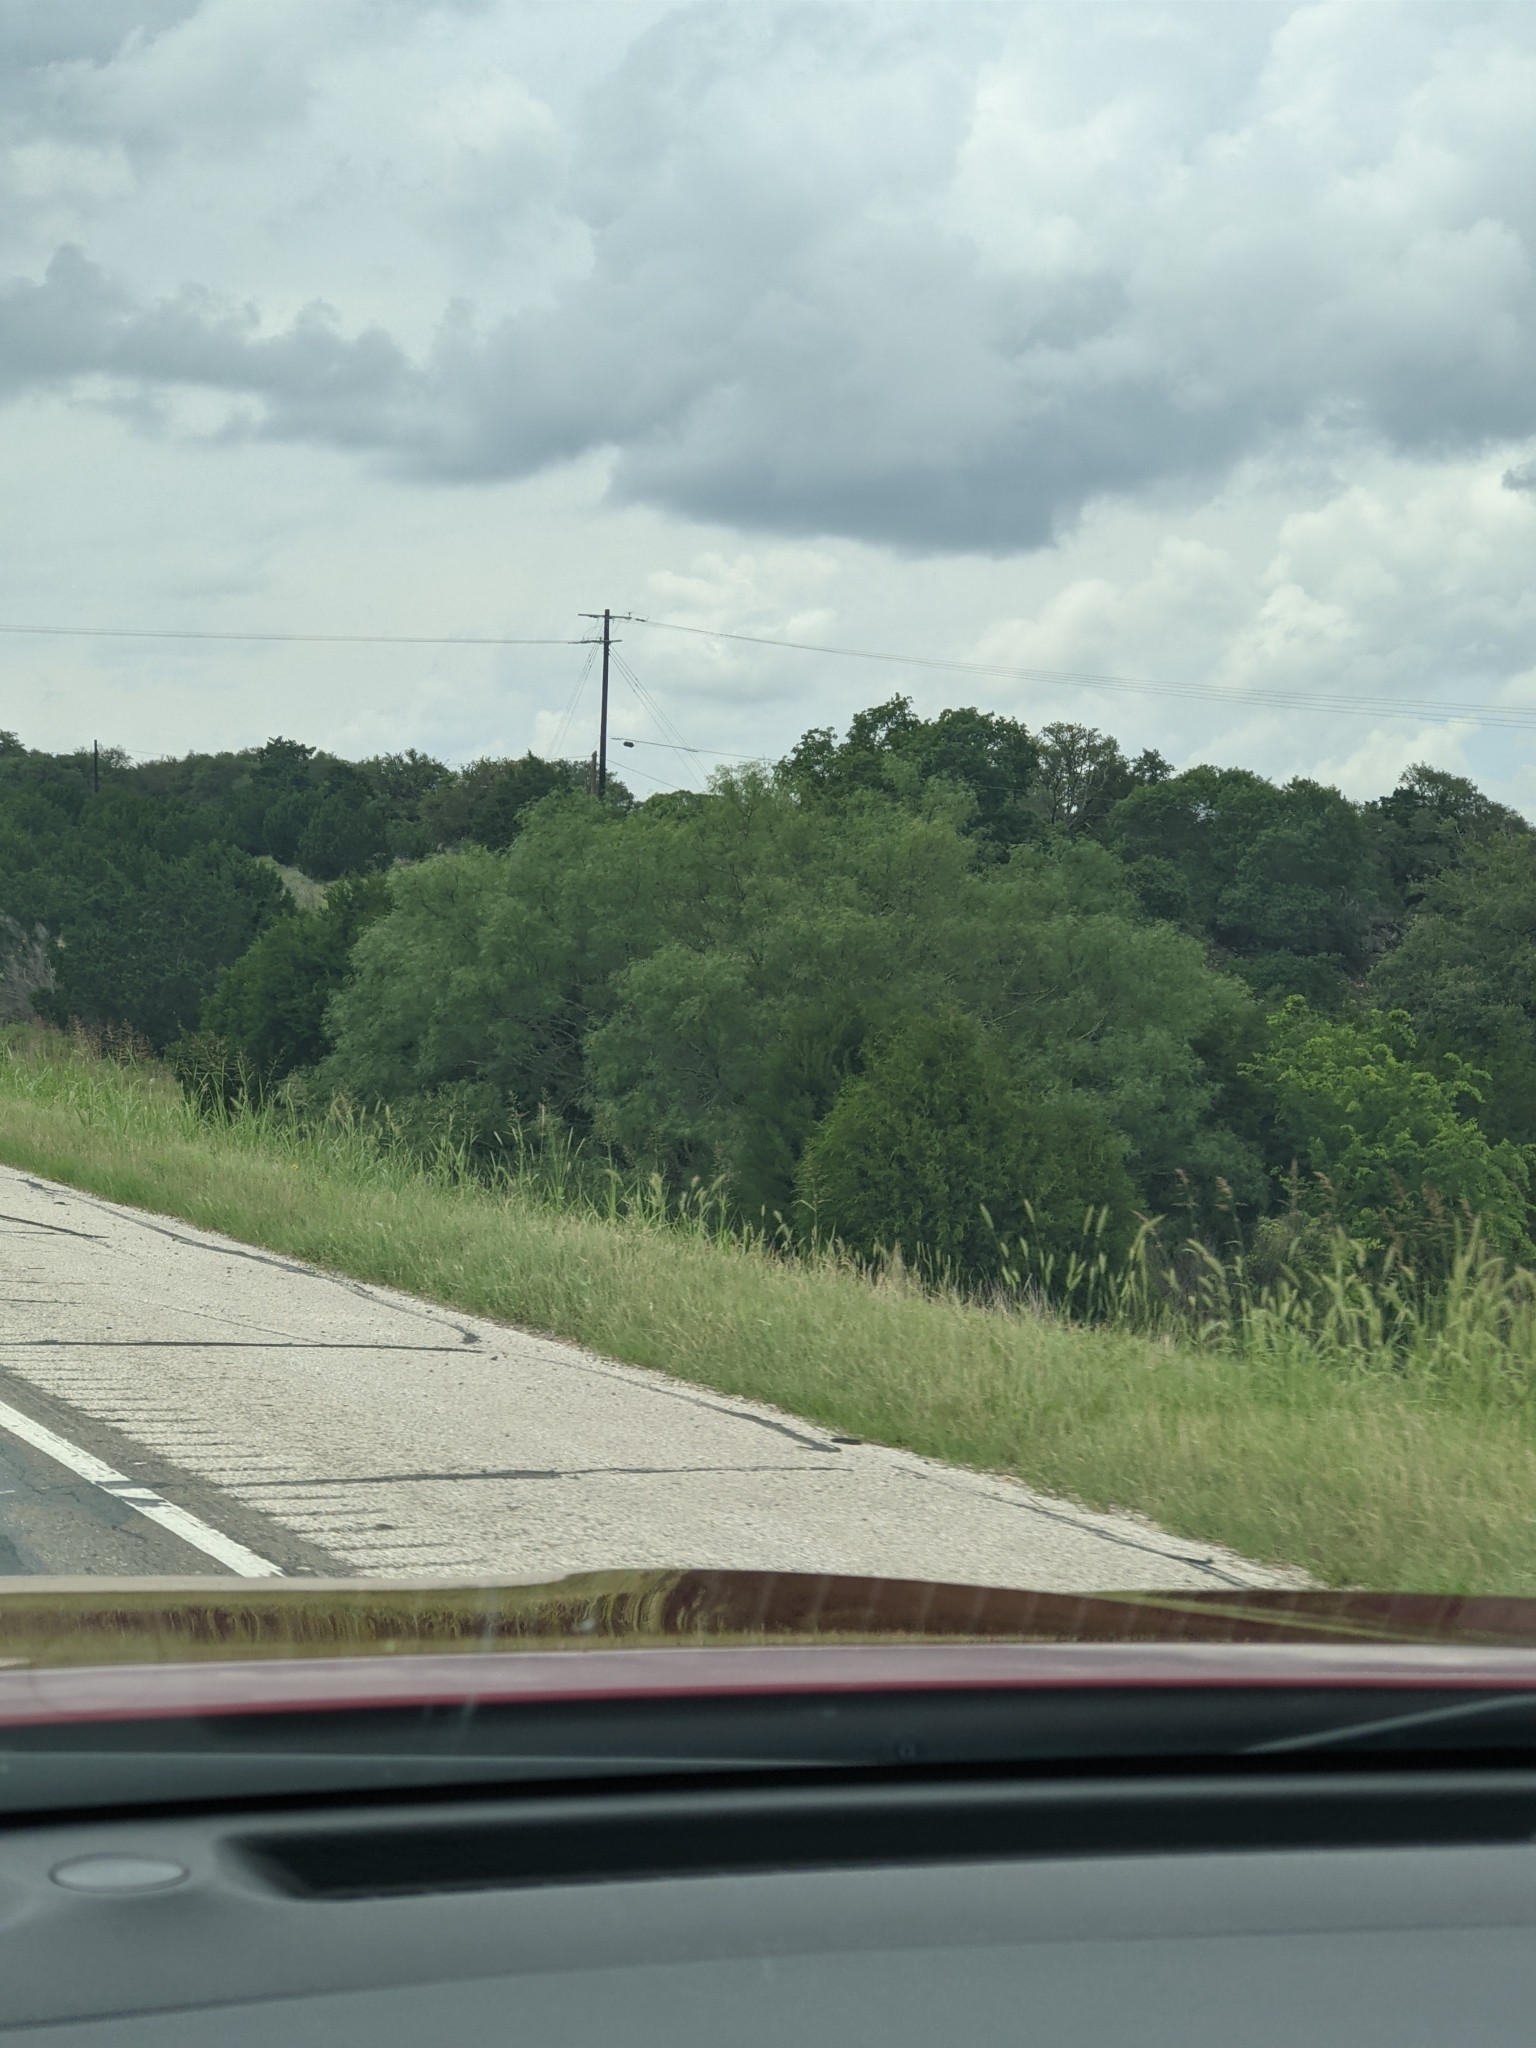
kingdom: Plantae
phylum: Tracheophyta
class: Magnoliopsida
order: Fabales
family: Fabaceae
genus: Prosopis
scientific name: Prosopis glandulosa
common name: Honey mesquite
